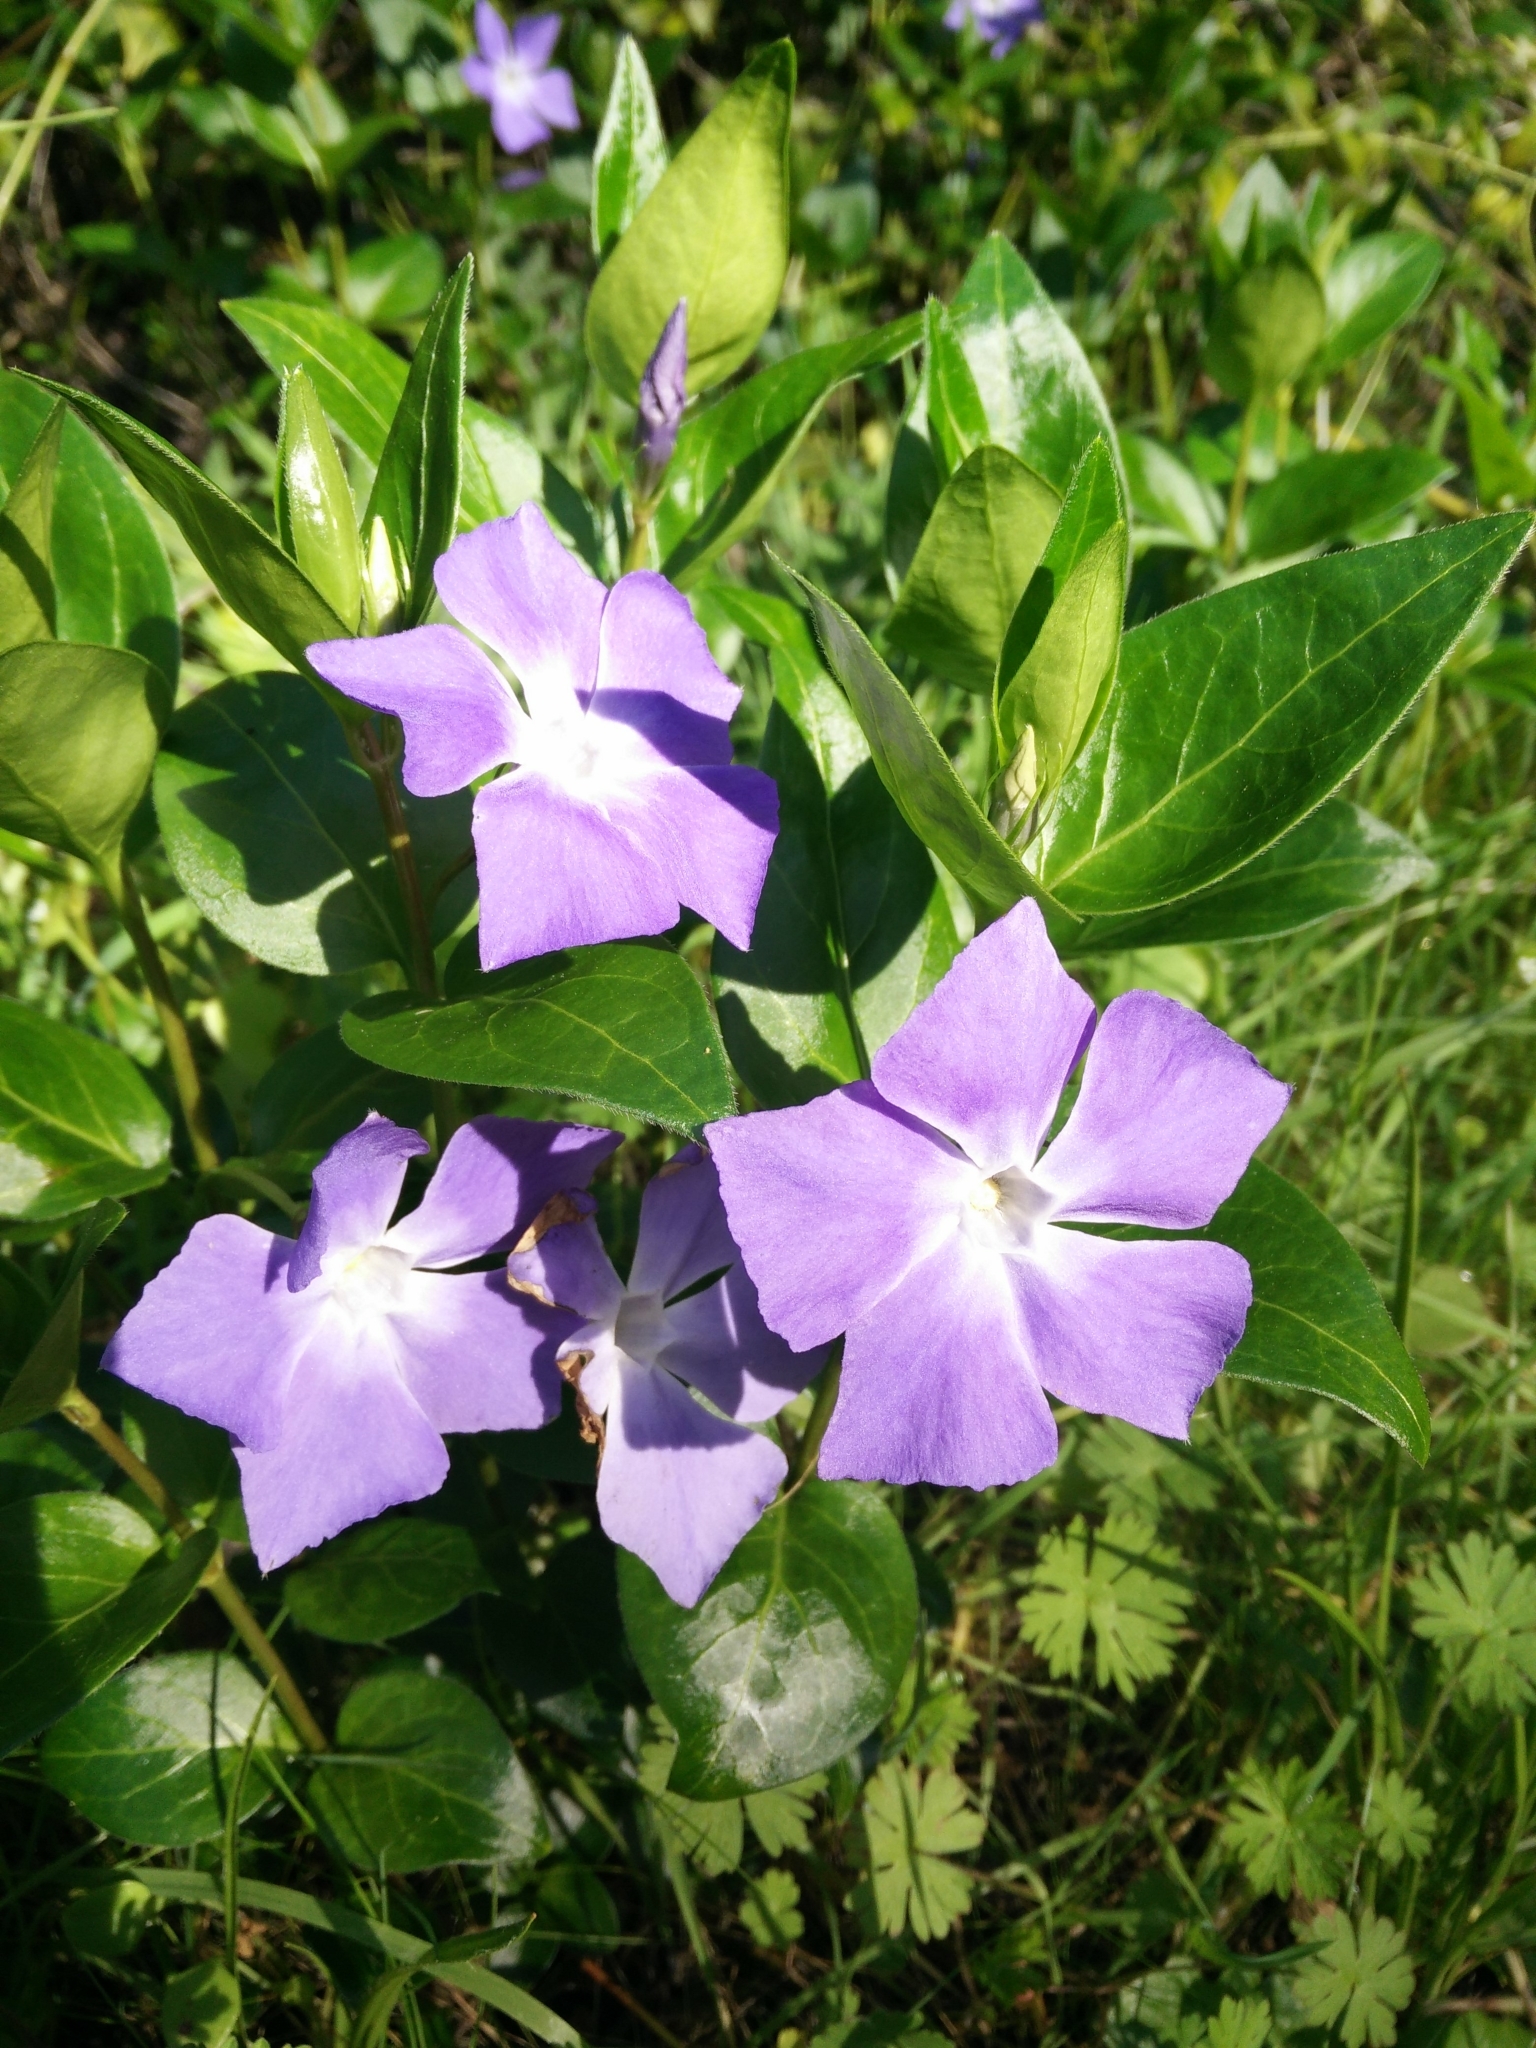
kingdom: Plantae
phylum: Tracheophyta
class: Magnoliopsida
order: Gentianales
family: Apocynaceae
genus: Vinca
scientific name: Vinca major
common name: Greater periwinkle
